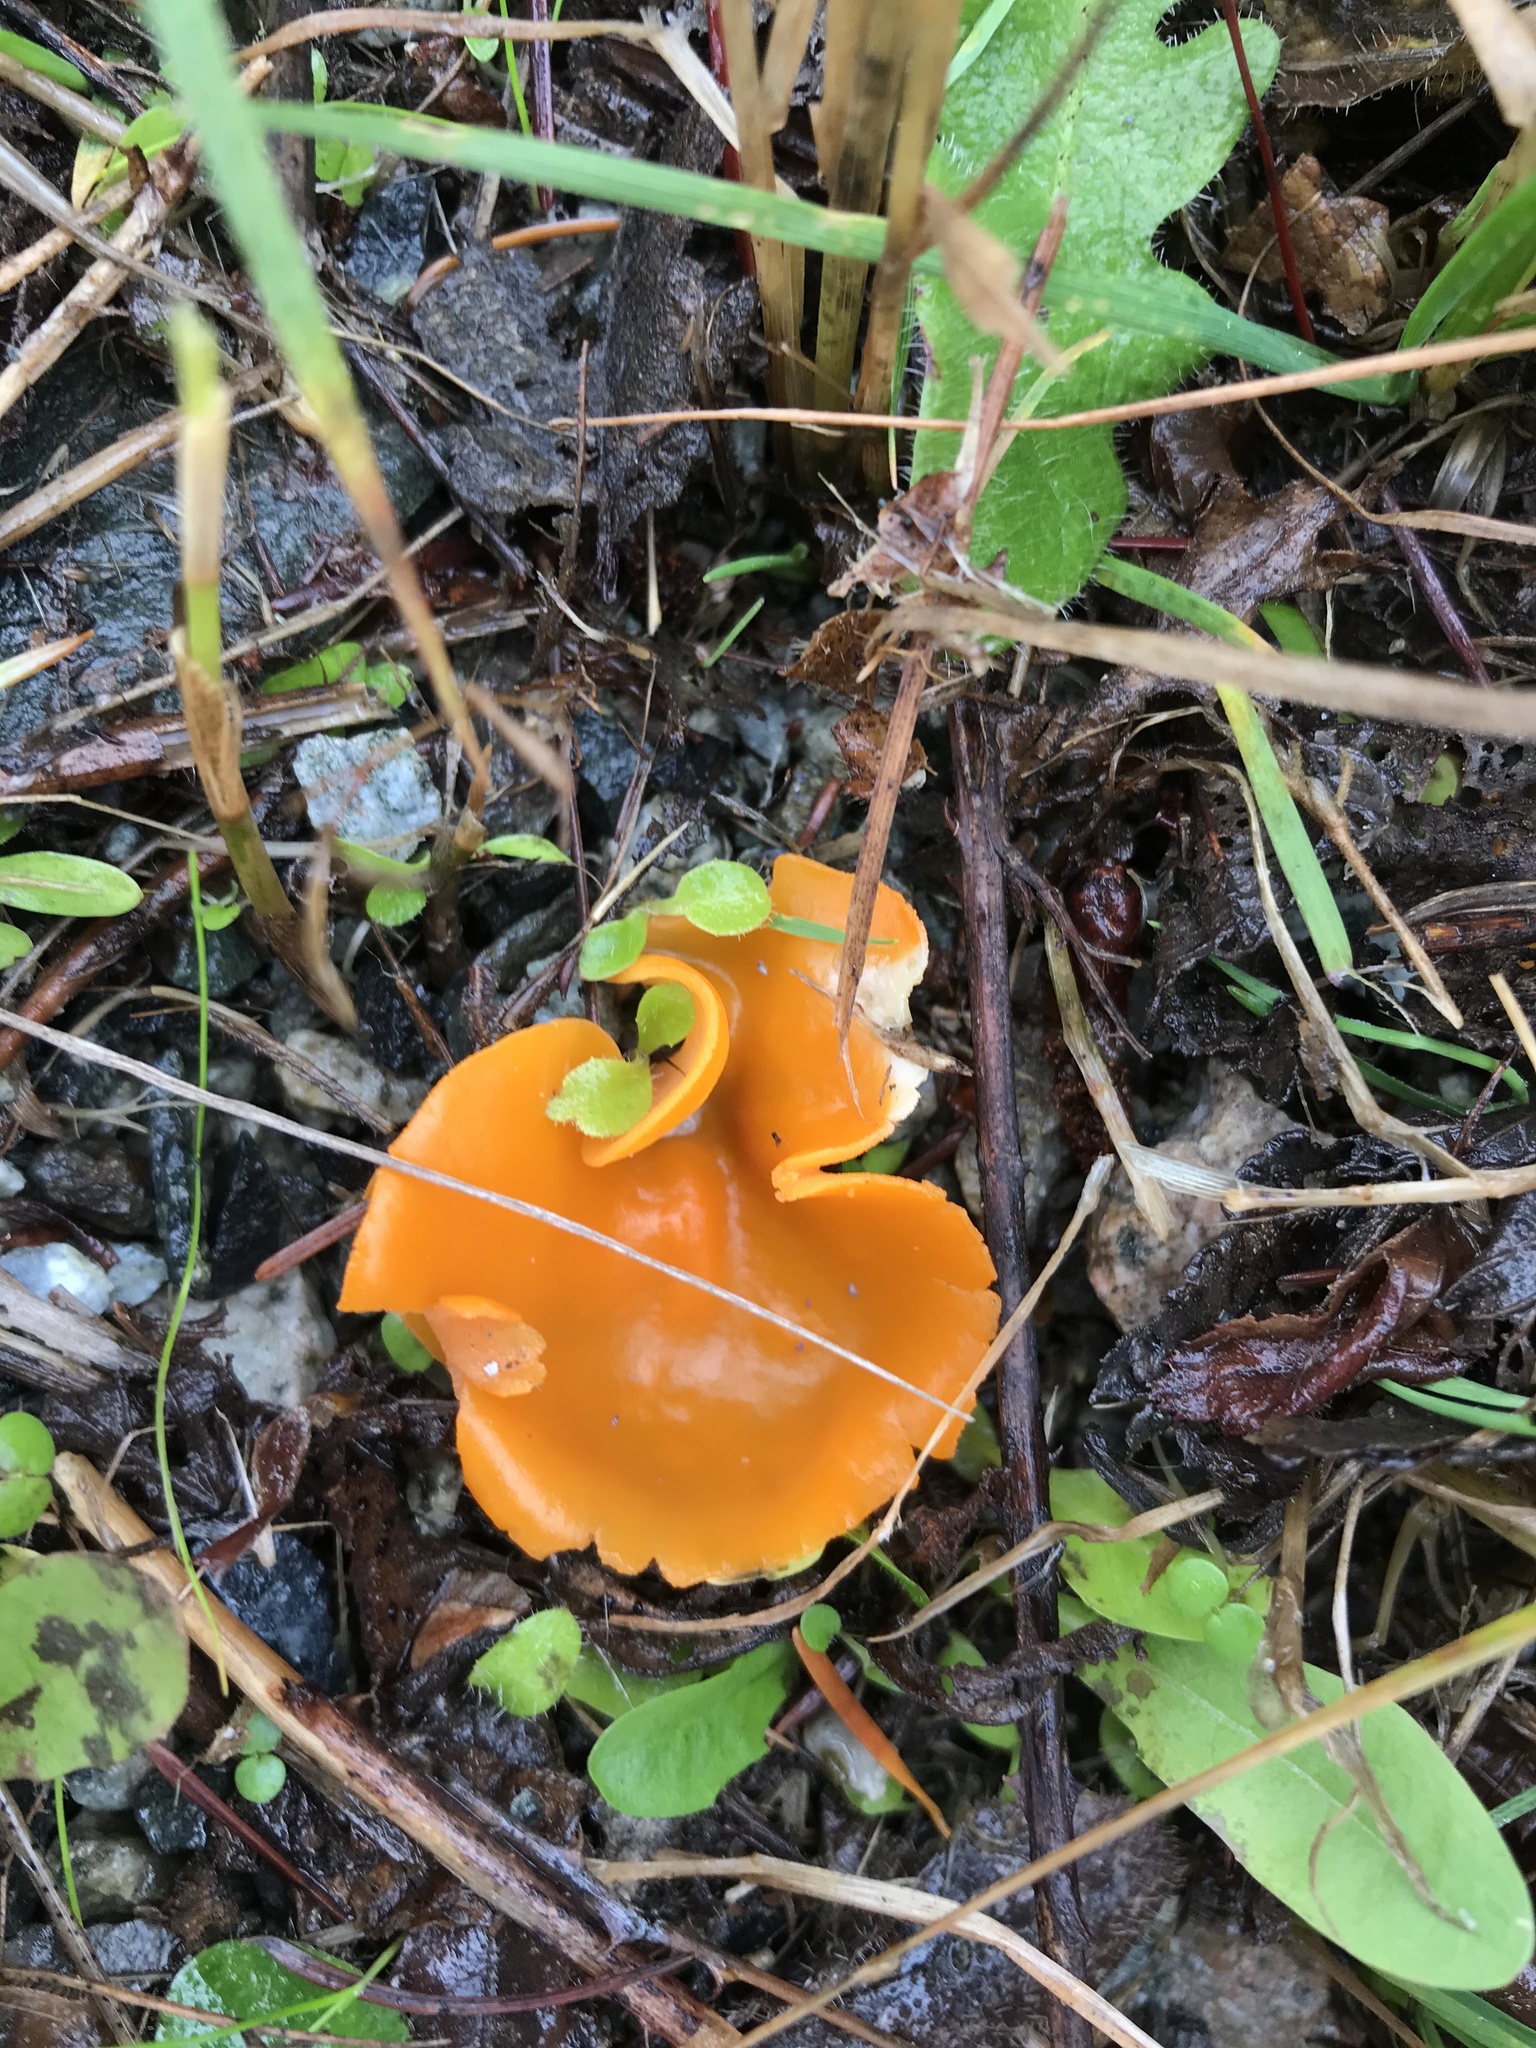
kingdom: Fungi
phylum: Ascomycota
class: Pezizomycetes
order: Pezizales
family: Pyronemataceae
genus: Aleuria
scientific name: Aleuria aurantia
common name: Orange peel fungus
